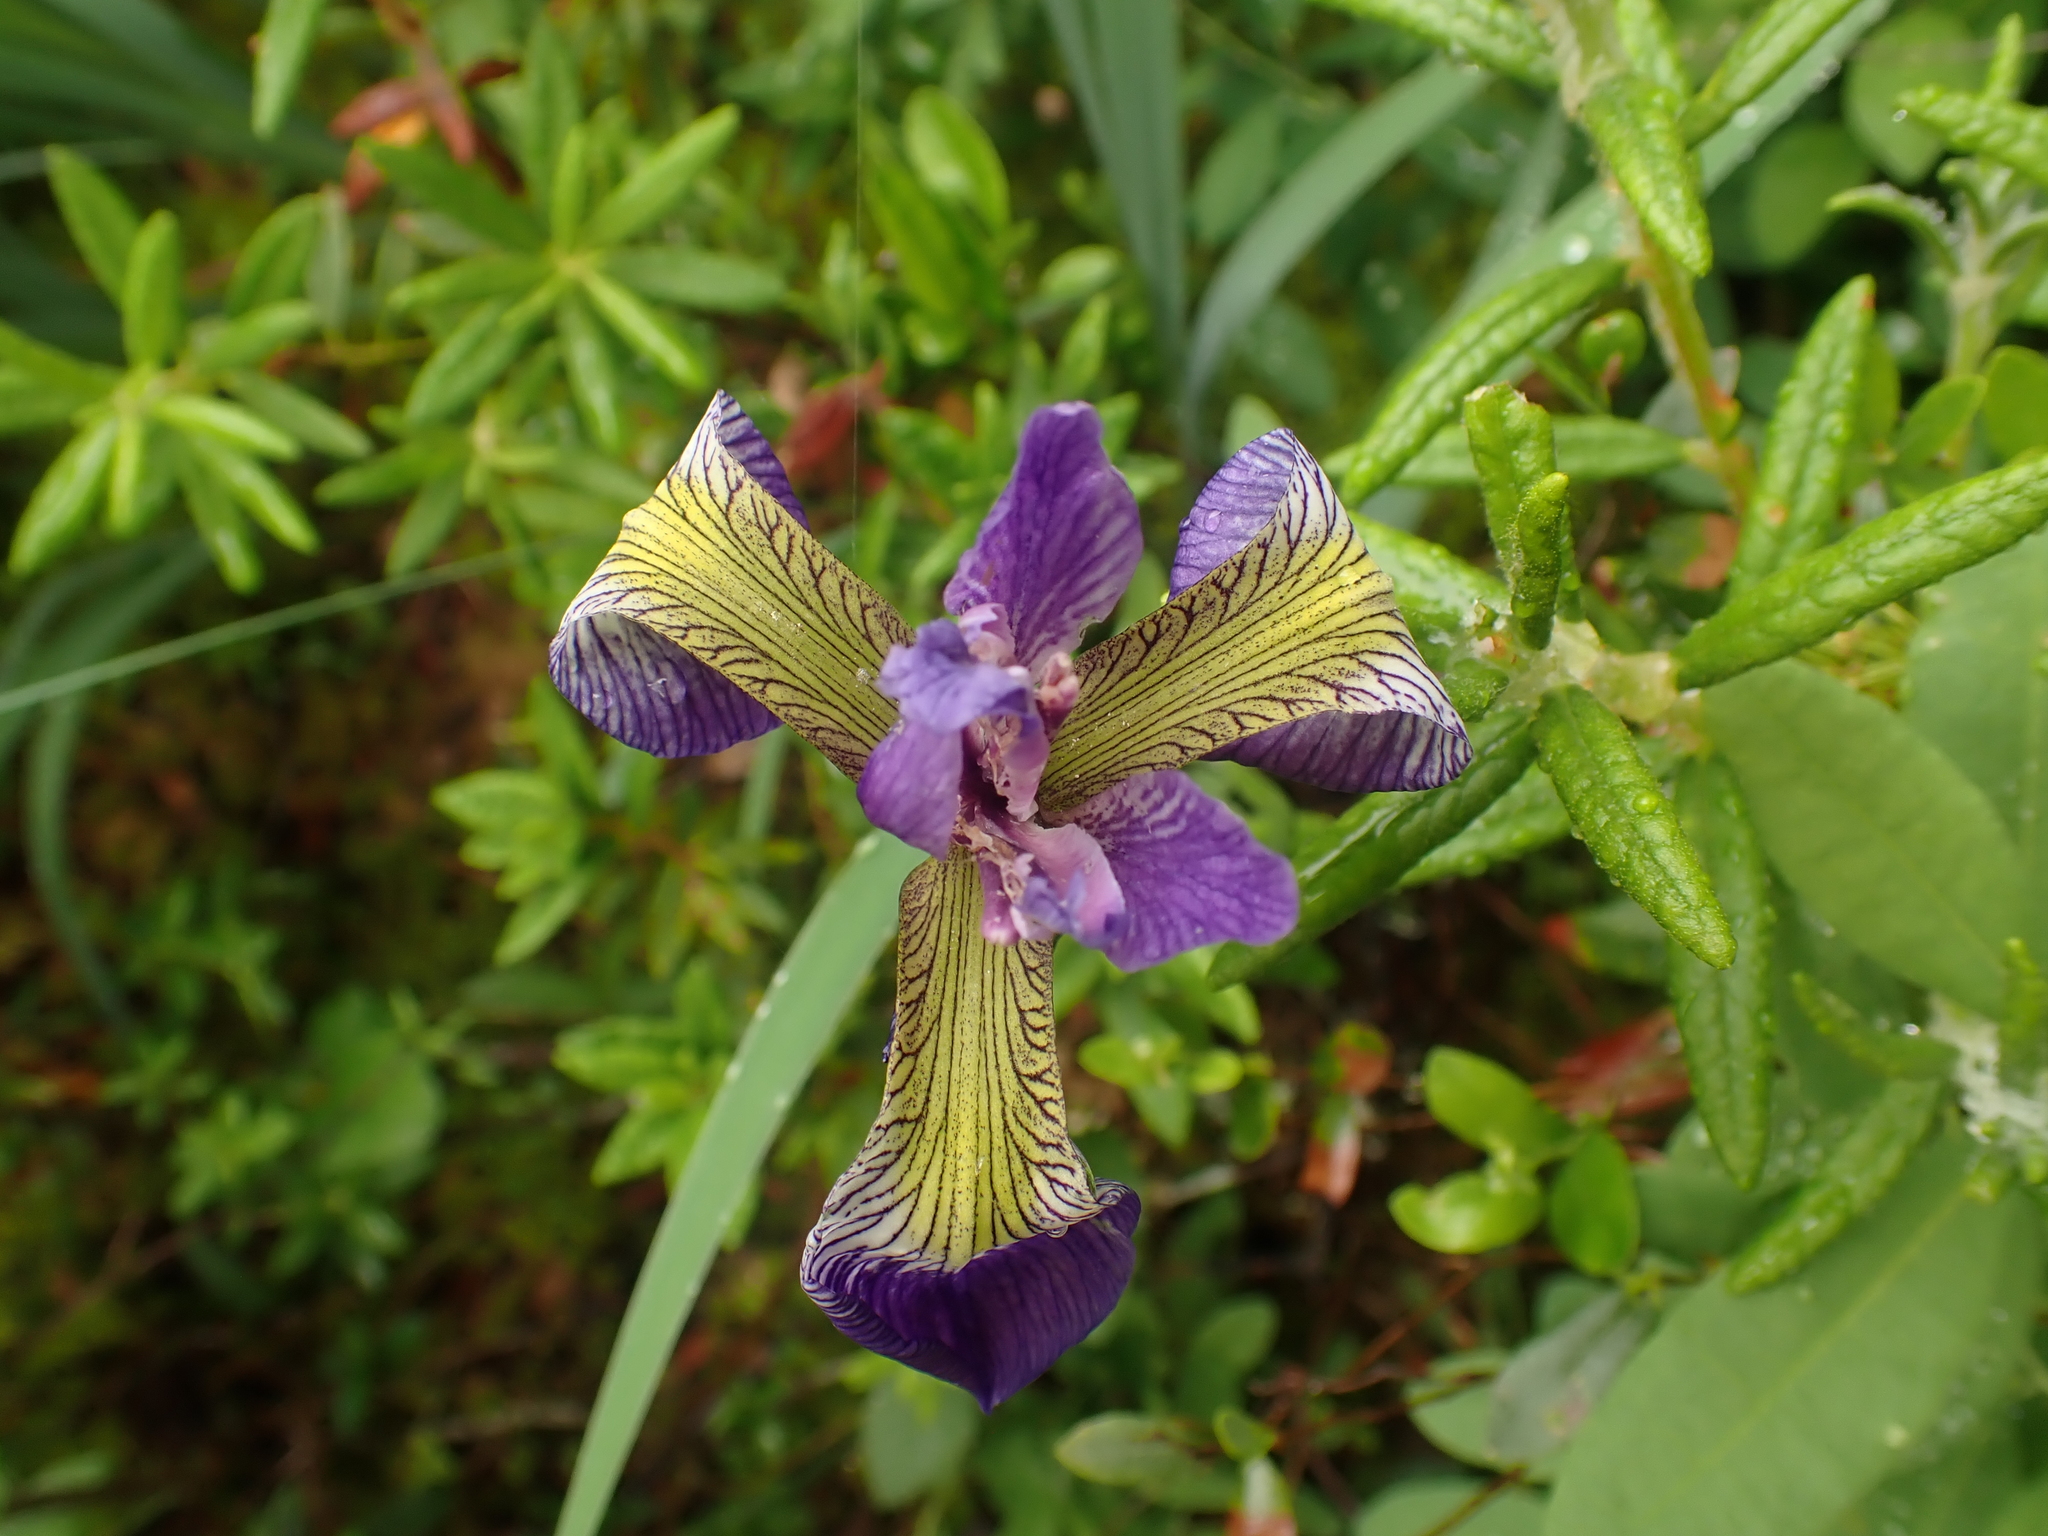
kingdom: Plantae
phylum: Tracheophyta
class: Liliopsida
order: Asparagales
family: Iridaceae
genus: Iris
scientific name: Iris versicolor
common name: Purple iris
